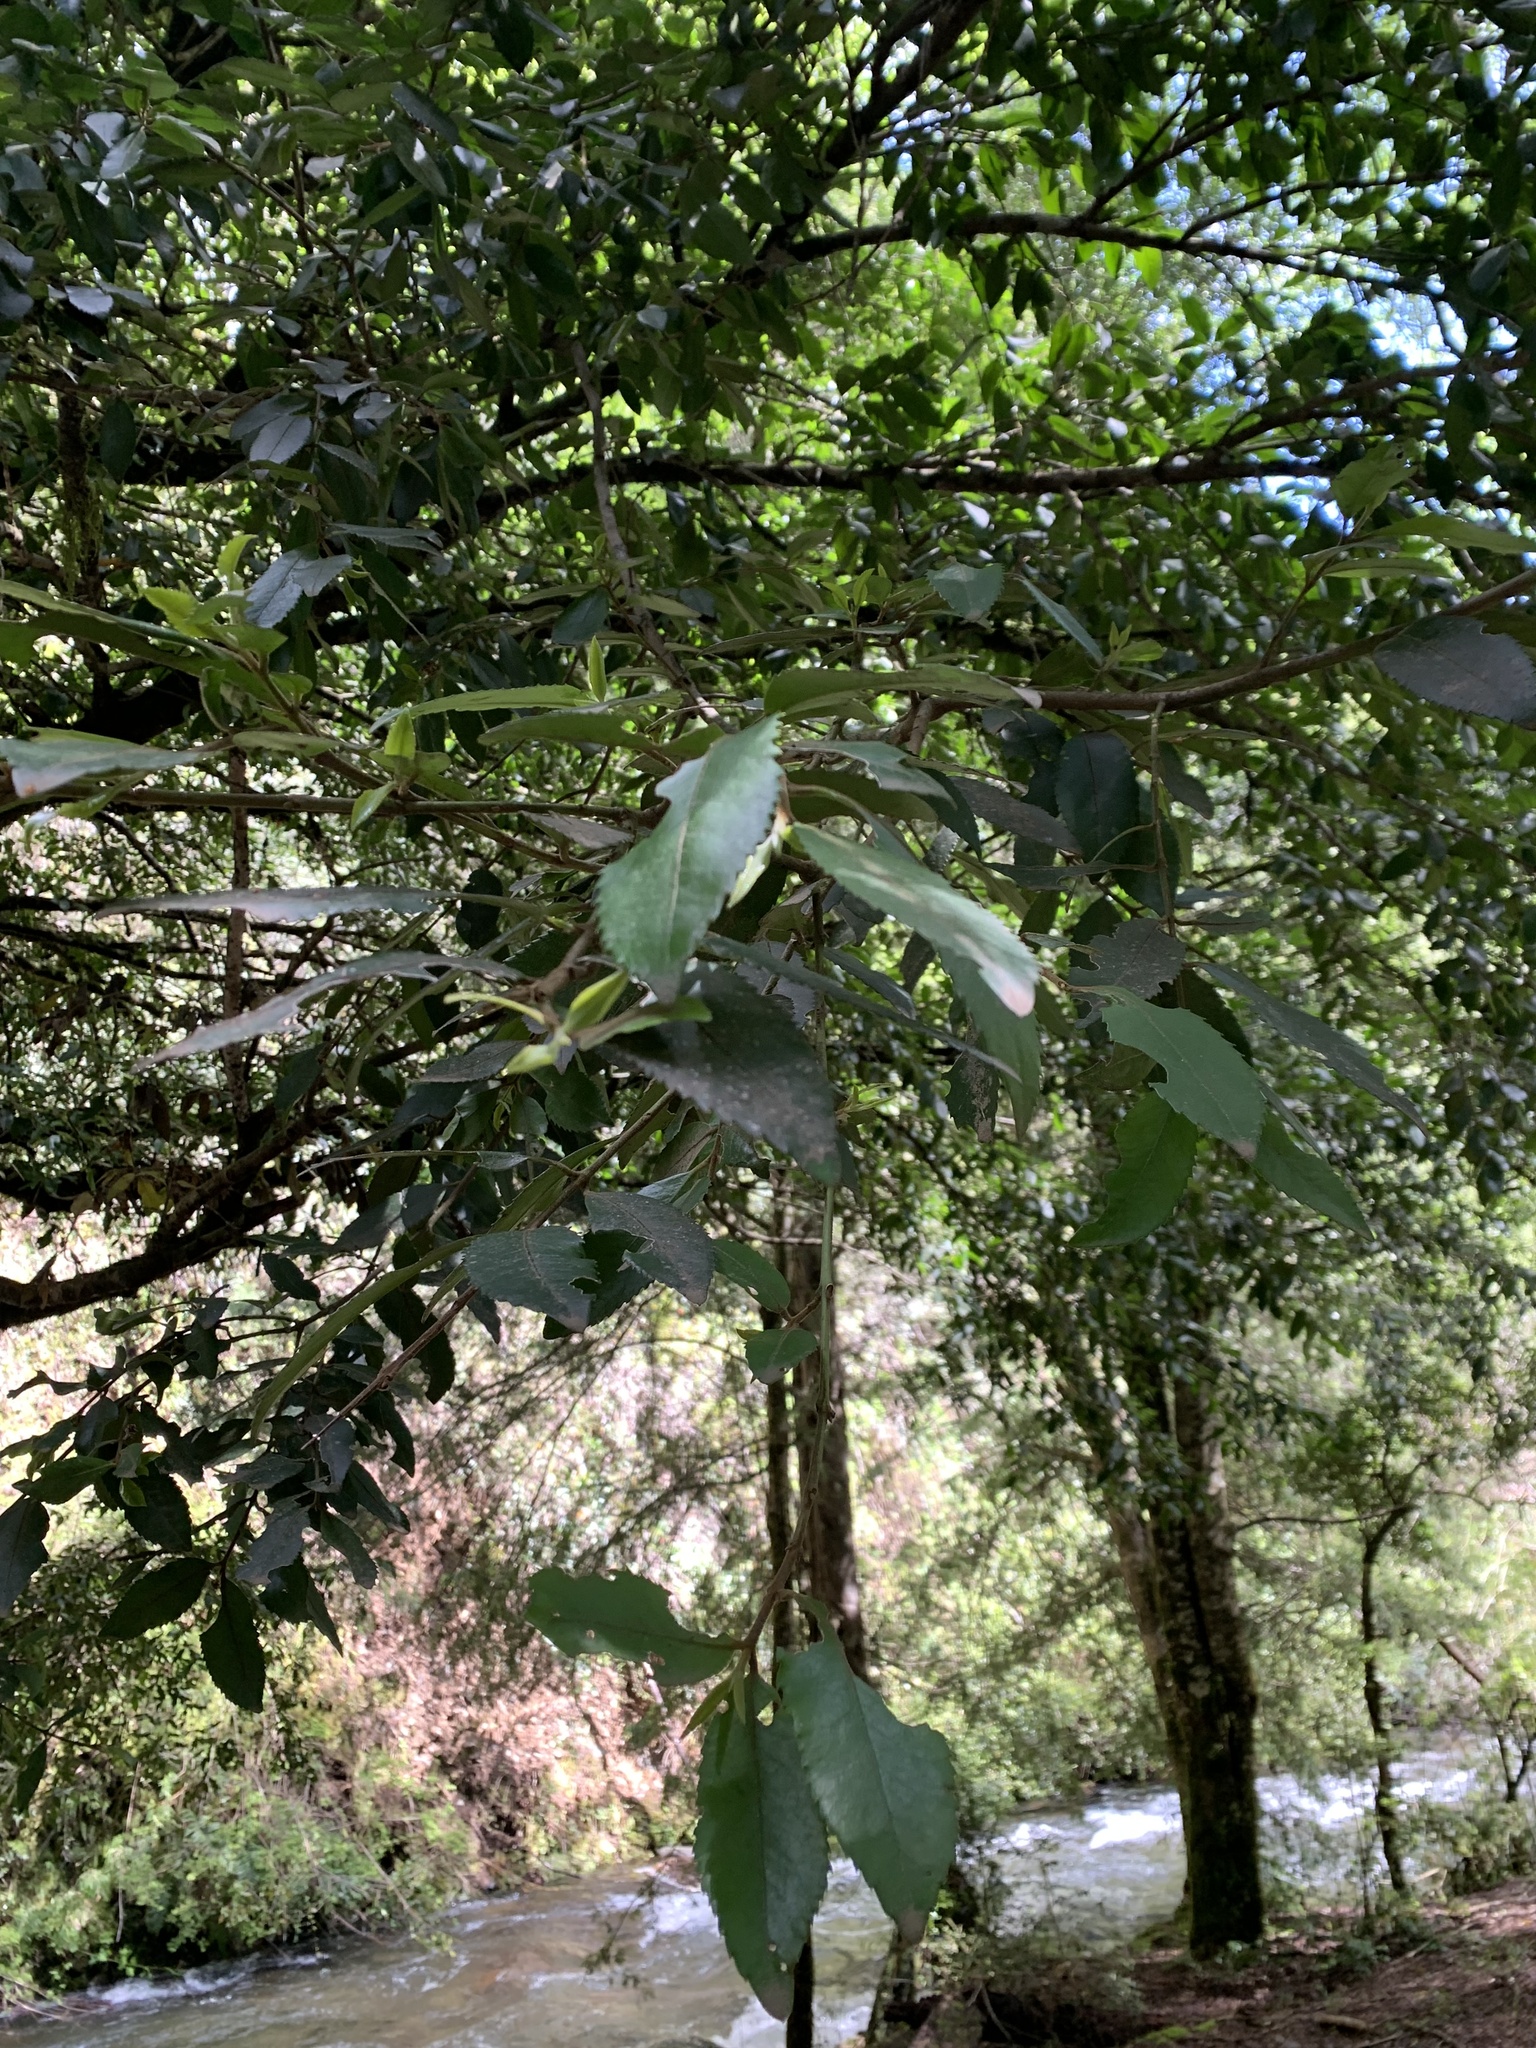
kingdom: Plantae
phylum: Tracheophyta
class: Magnoliopsida
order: Laurales
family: Atherospermataceae
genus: Laureliopsis
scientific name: Laureliopsis philippiana
